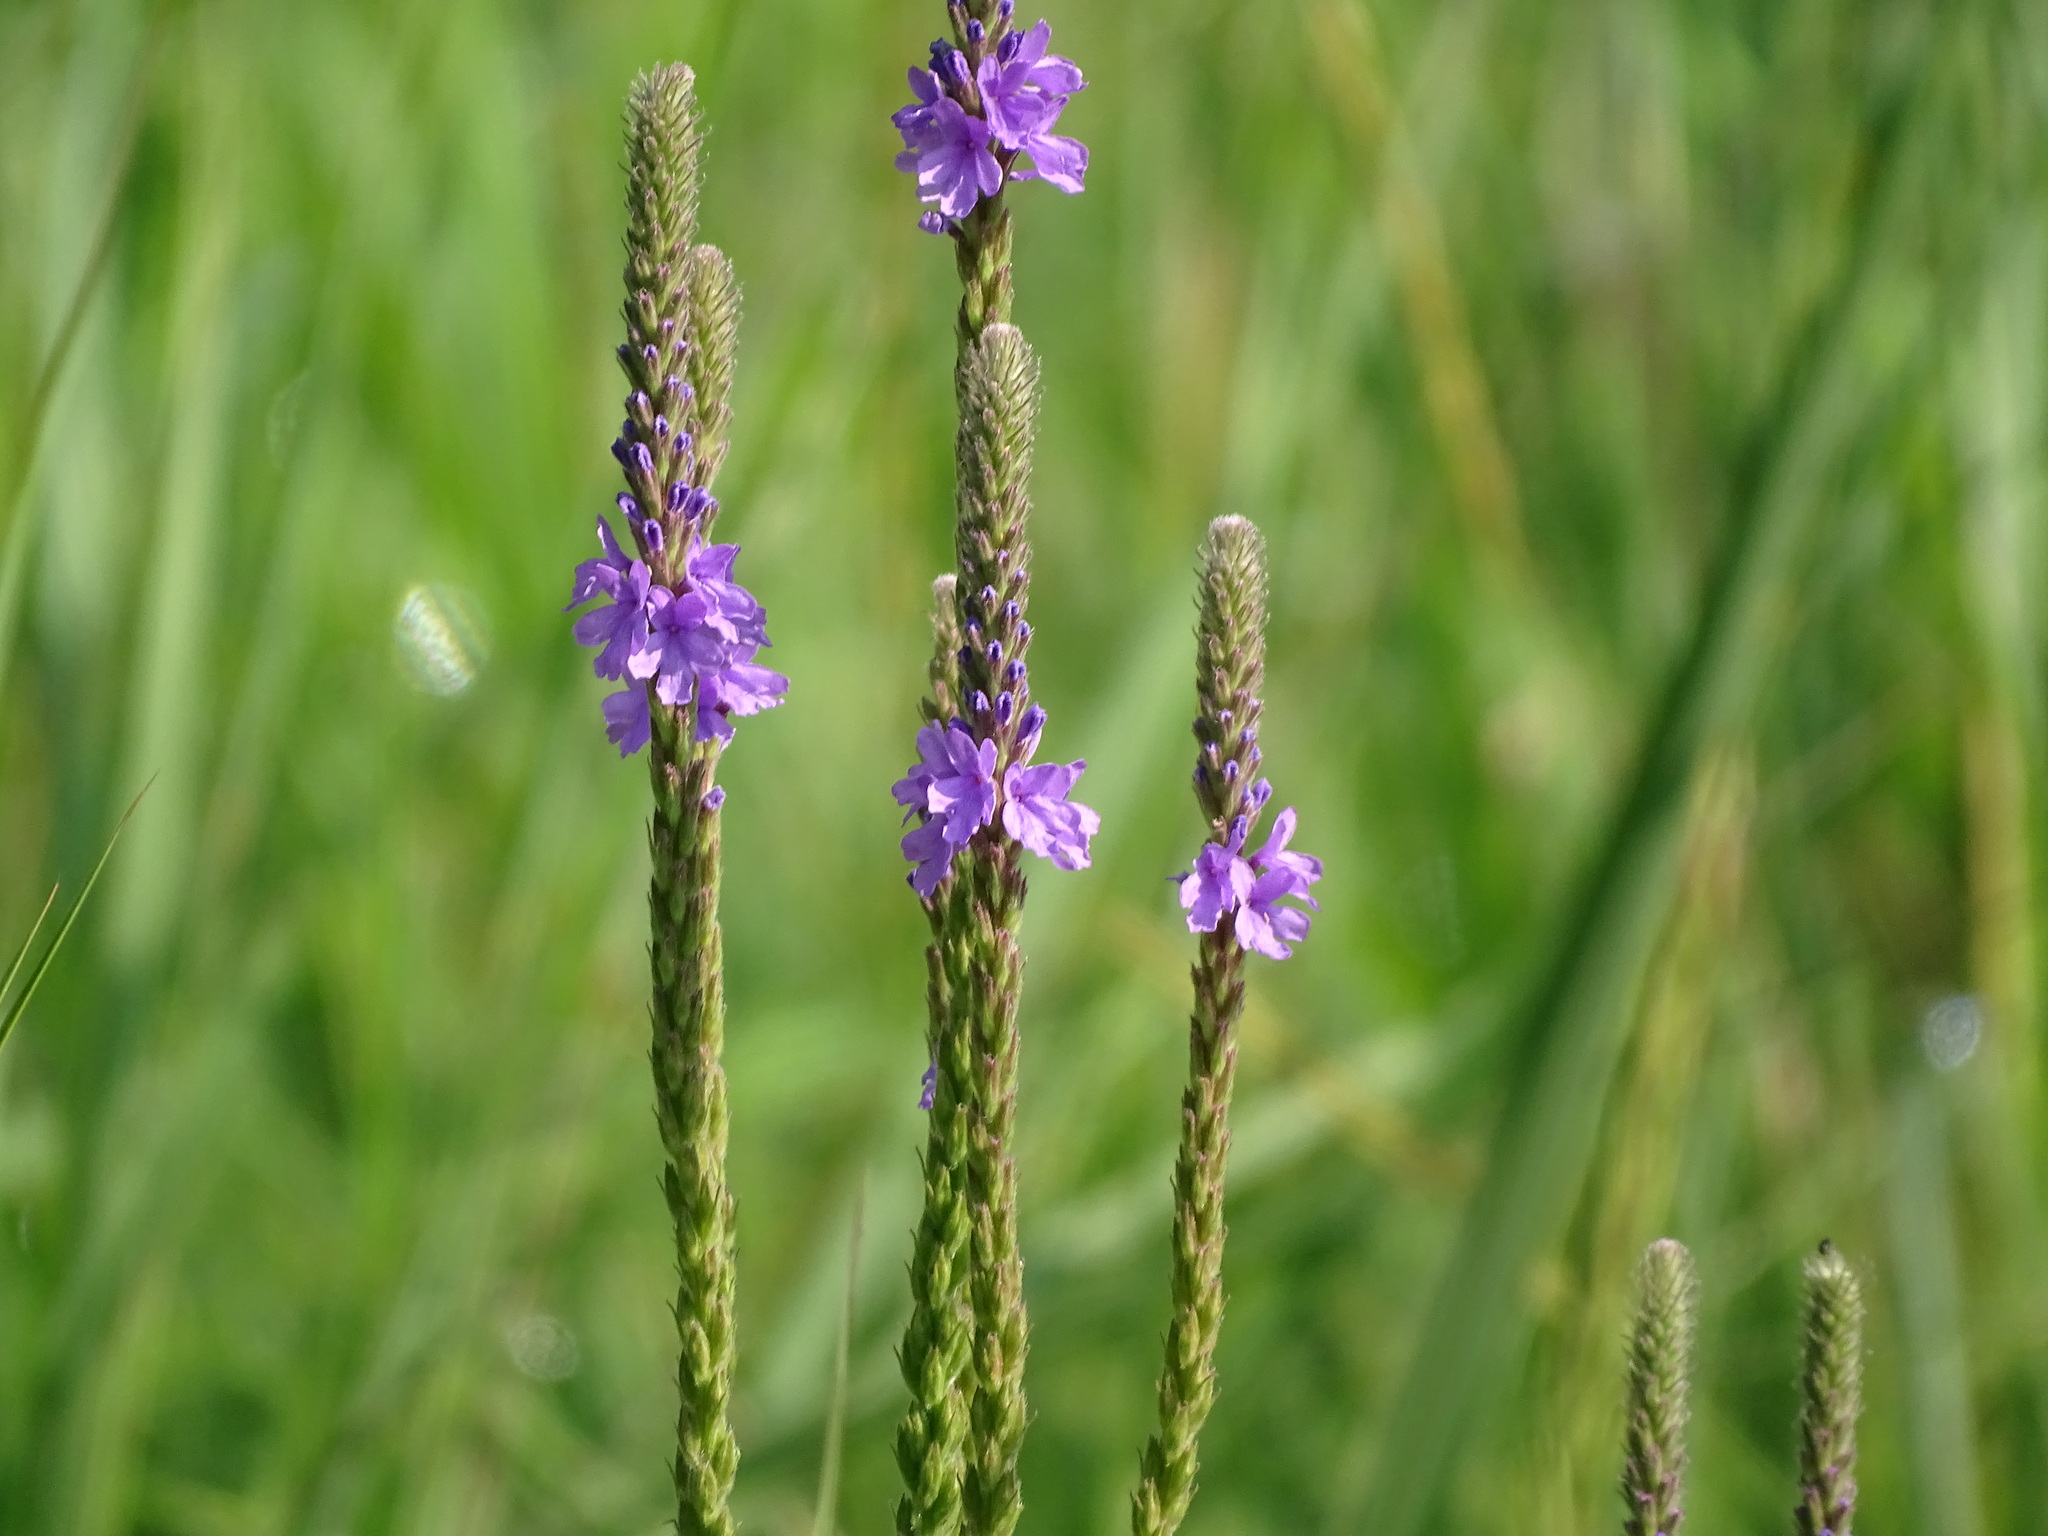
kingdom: Plantae
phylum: Tracheophyta
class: Magnoliopsida
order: Lamiales
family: Verbenaceae
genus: Verbena
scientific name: Verbena stricta
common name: Hoary vervain
